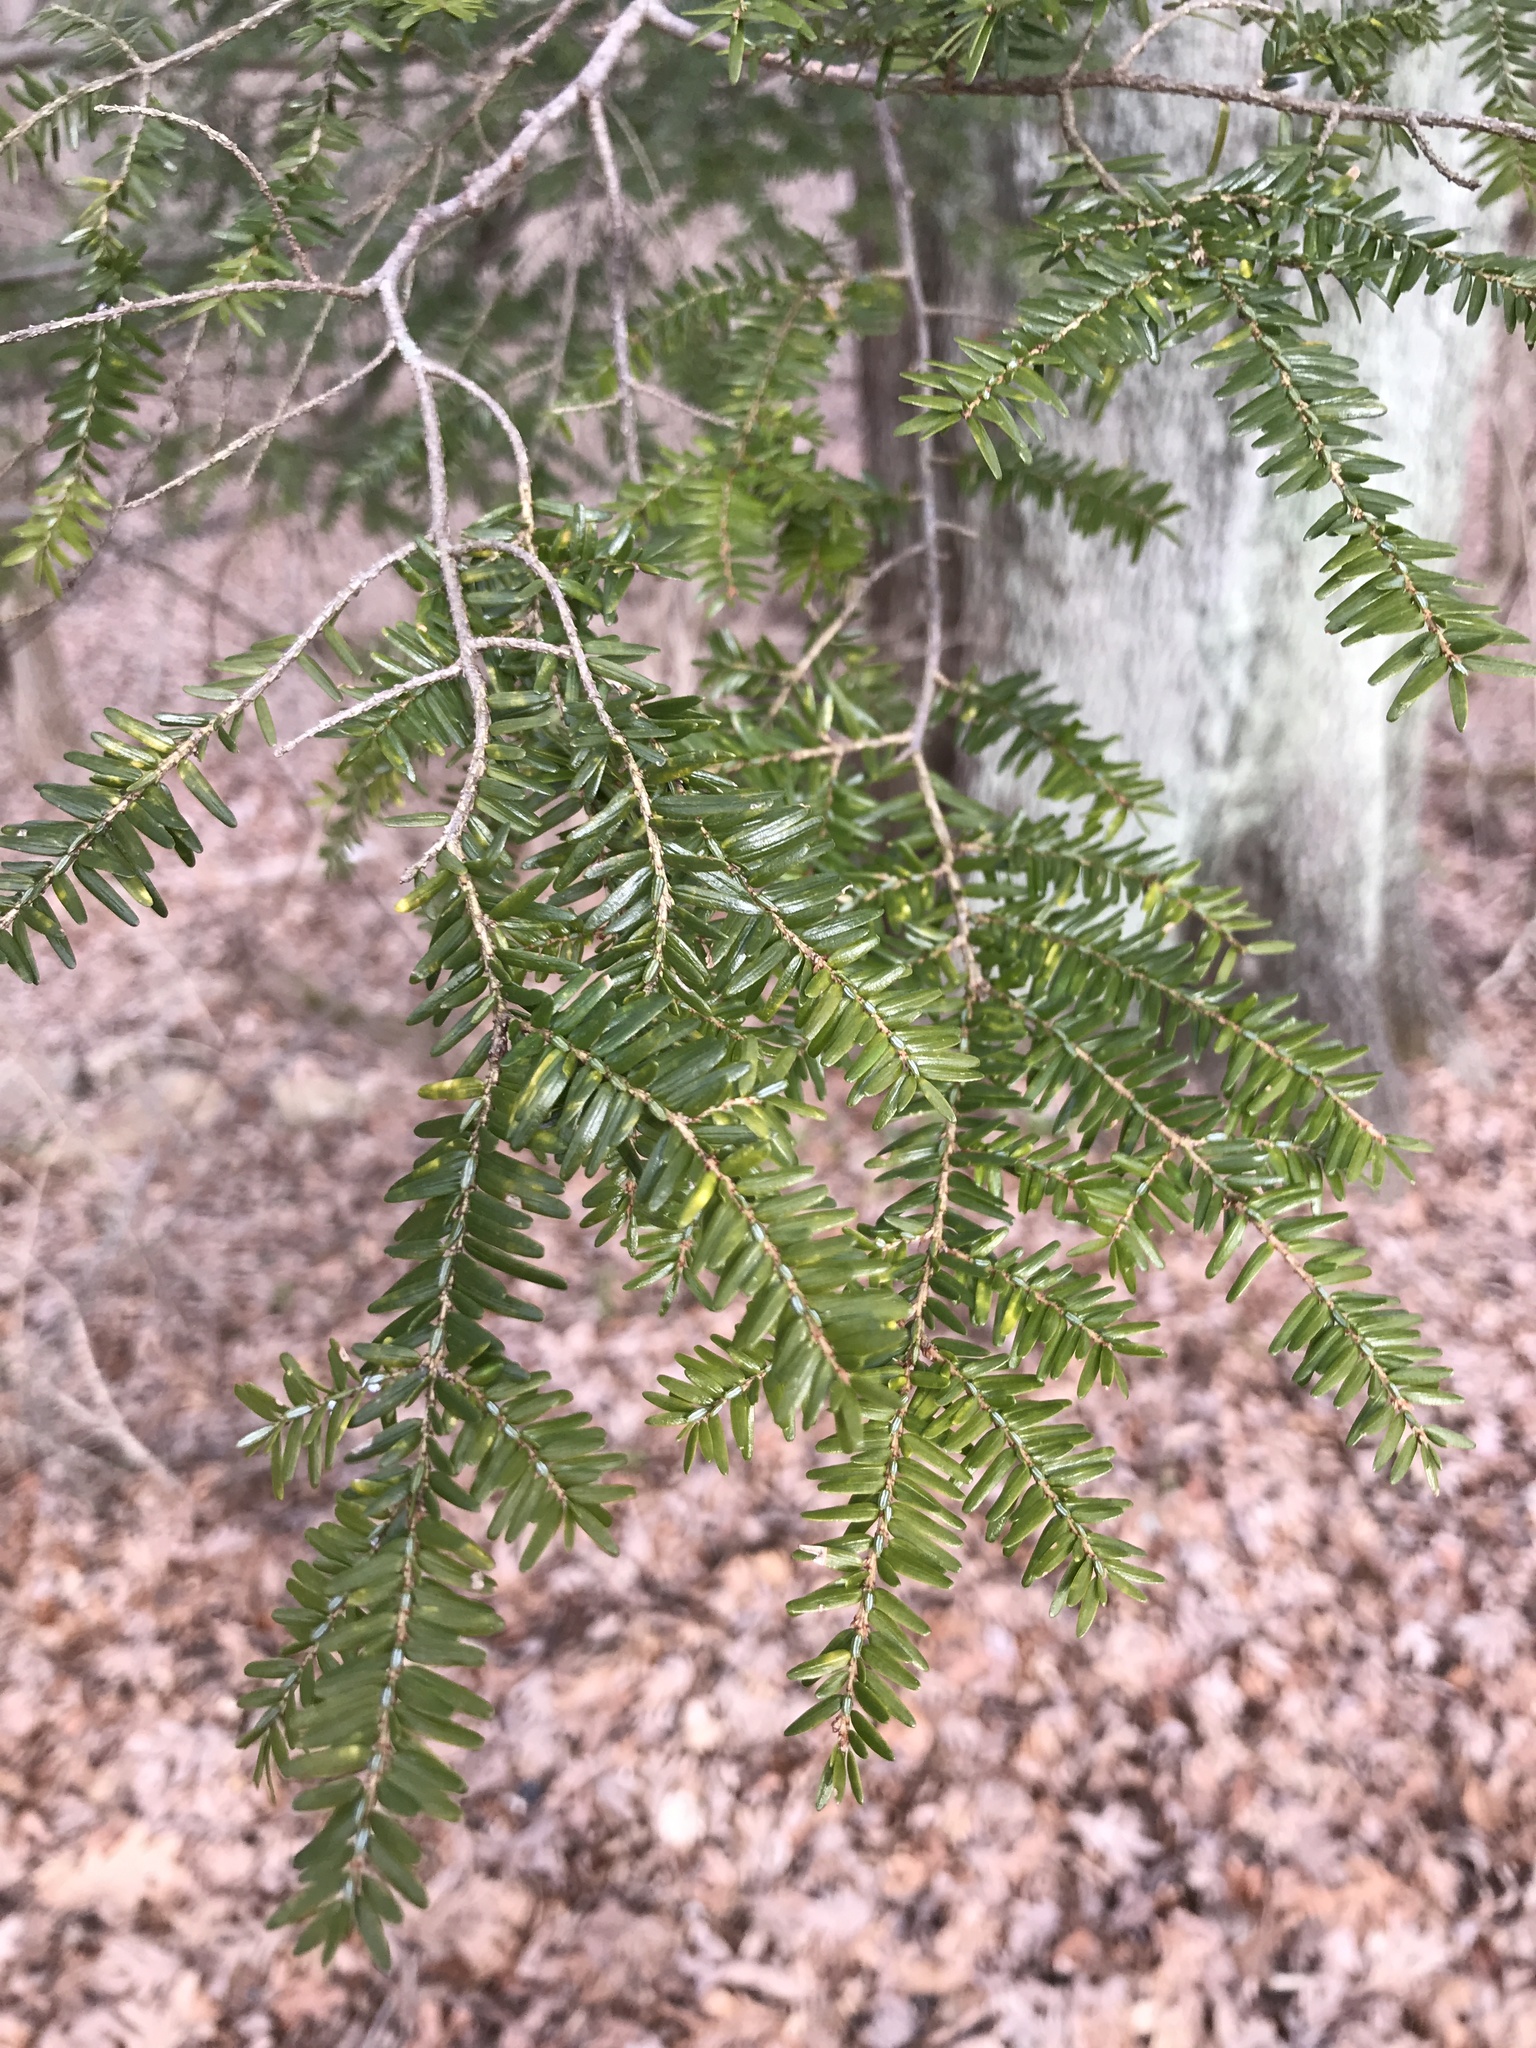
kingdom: Plantae
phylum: Tracheophyta
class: Pinopsida
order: Pinales
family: Pinaceae
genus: Tsuga
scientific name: Tsuga canadensis
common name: Eastern hemlock
